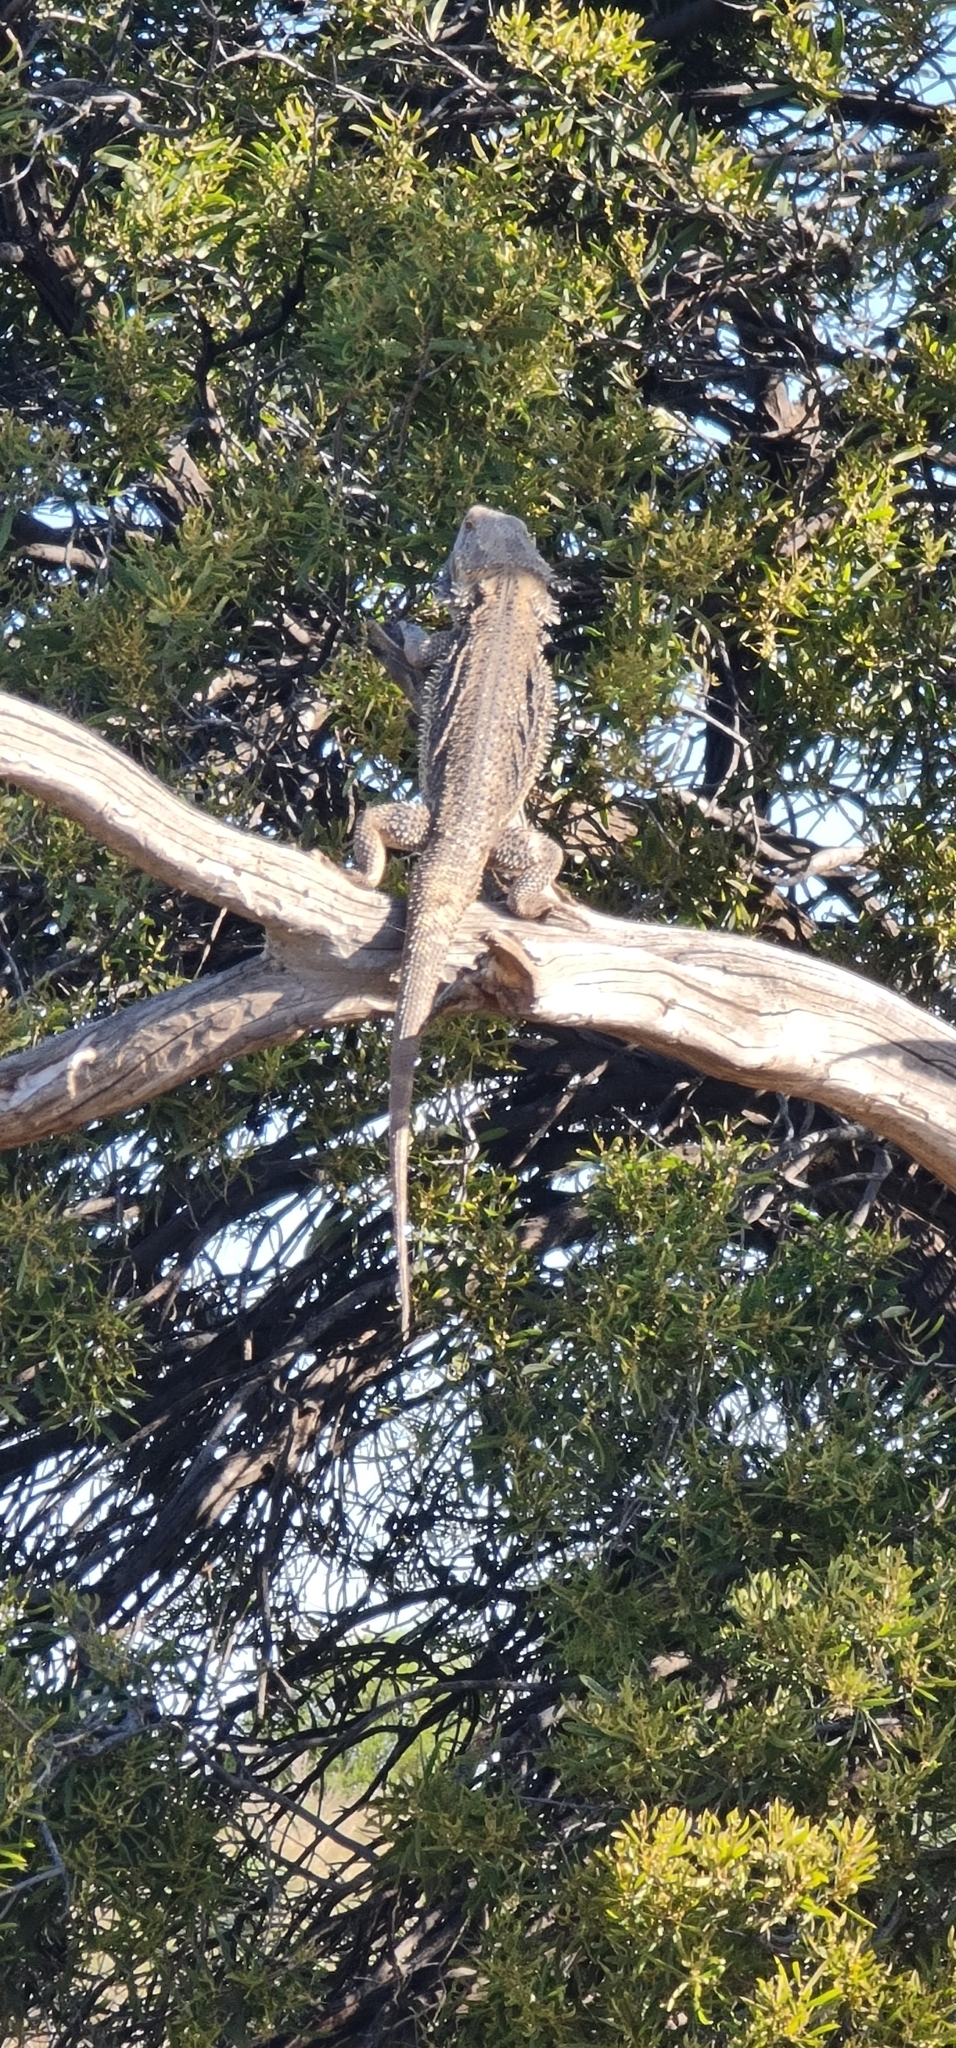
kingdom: Animalia
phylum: Chordata
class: Squamata
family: Agamidae
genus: Pogona
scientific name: Pogona vitticeps
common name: Central bearded dragon
